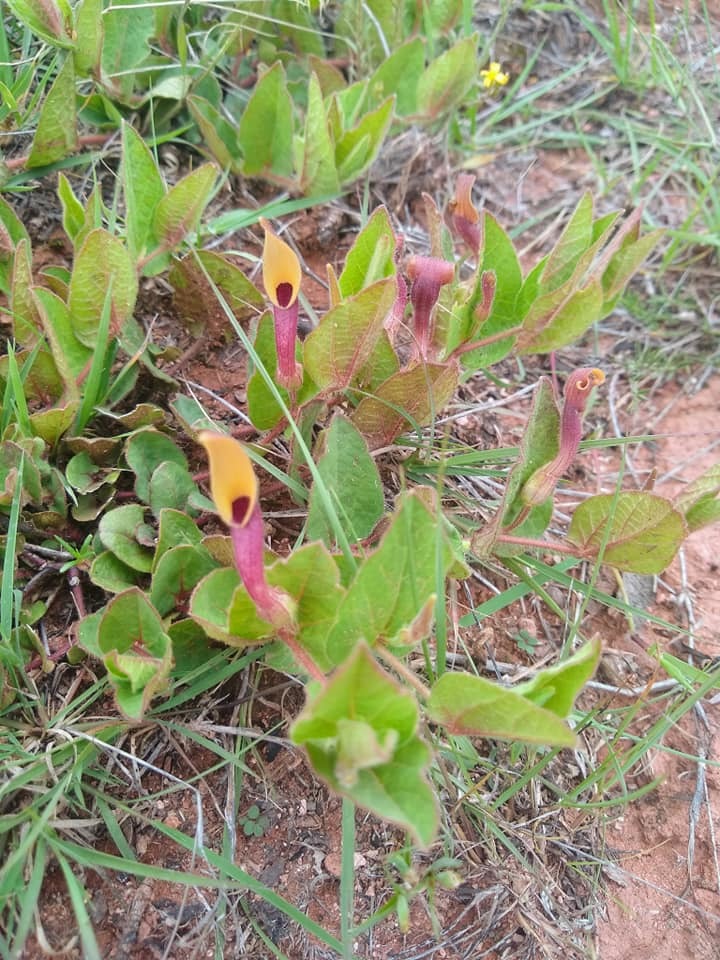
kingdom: Plantae
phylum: Tracheophyta
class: Magnoliopsida
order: Piperales
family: Aristolochiaceae
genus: Aristolochia
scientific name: Aristolochia oaxacana
